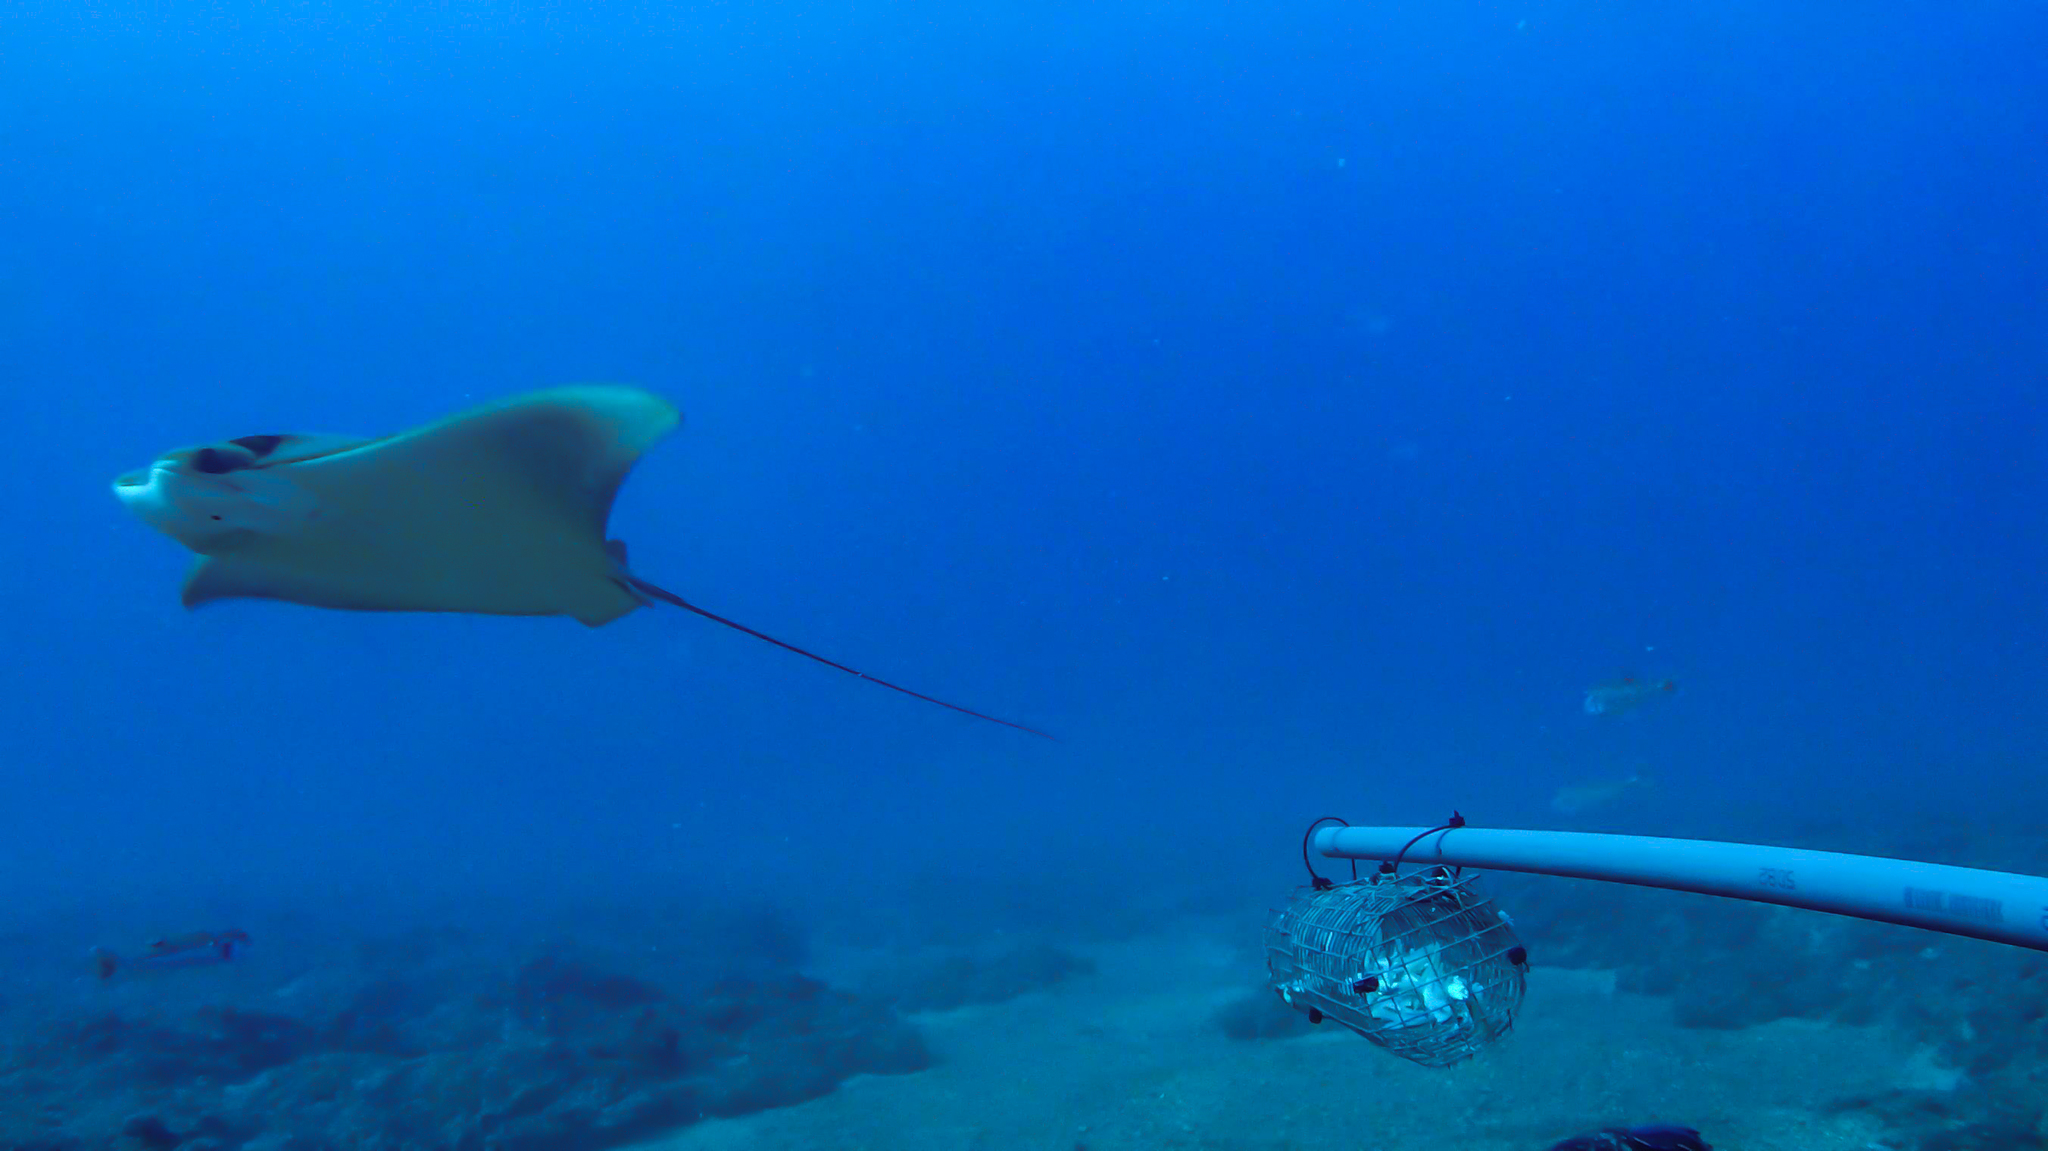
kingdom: Animalia
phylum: Chordata
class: Elasmobranchii
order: Myliobatiformes
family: Myliobatidae
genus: Rhinoptera
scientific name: Rhinoptera marginata
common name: Lusitanian cownose ray
